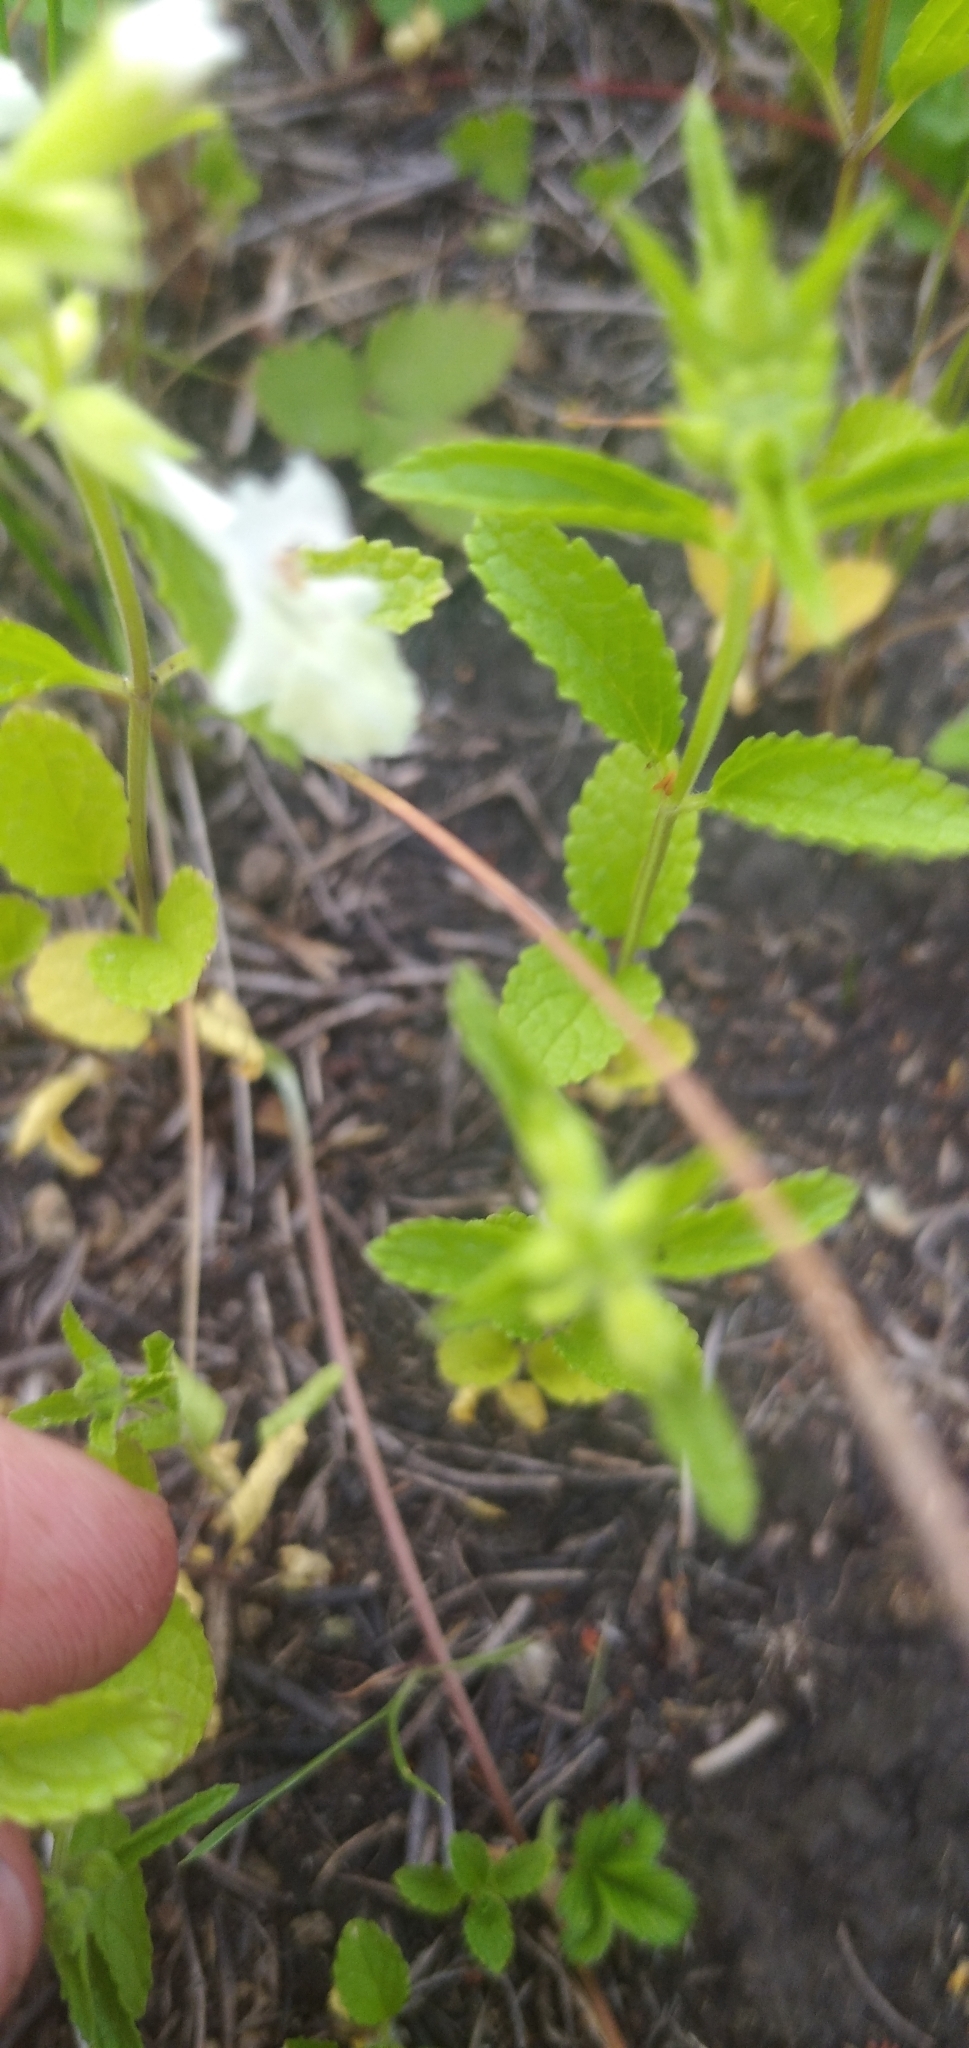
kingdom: Plantae
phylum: Tracheophyta
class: Magnoliopsida
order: Lamiales
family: Lamiaceae
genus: Stachys
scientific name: Stachys annua
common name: Annual yellow-woundwort
